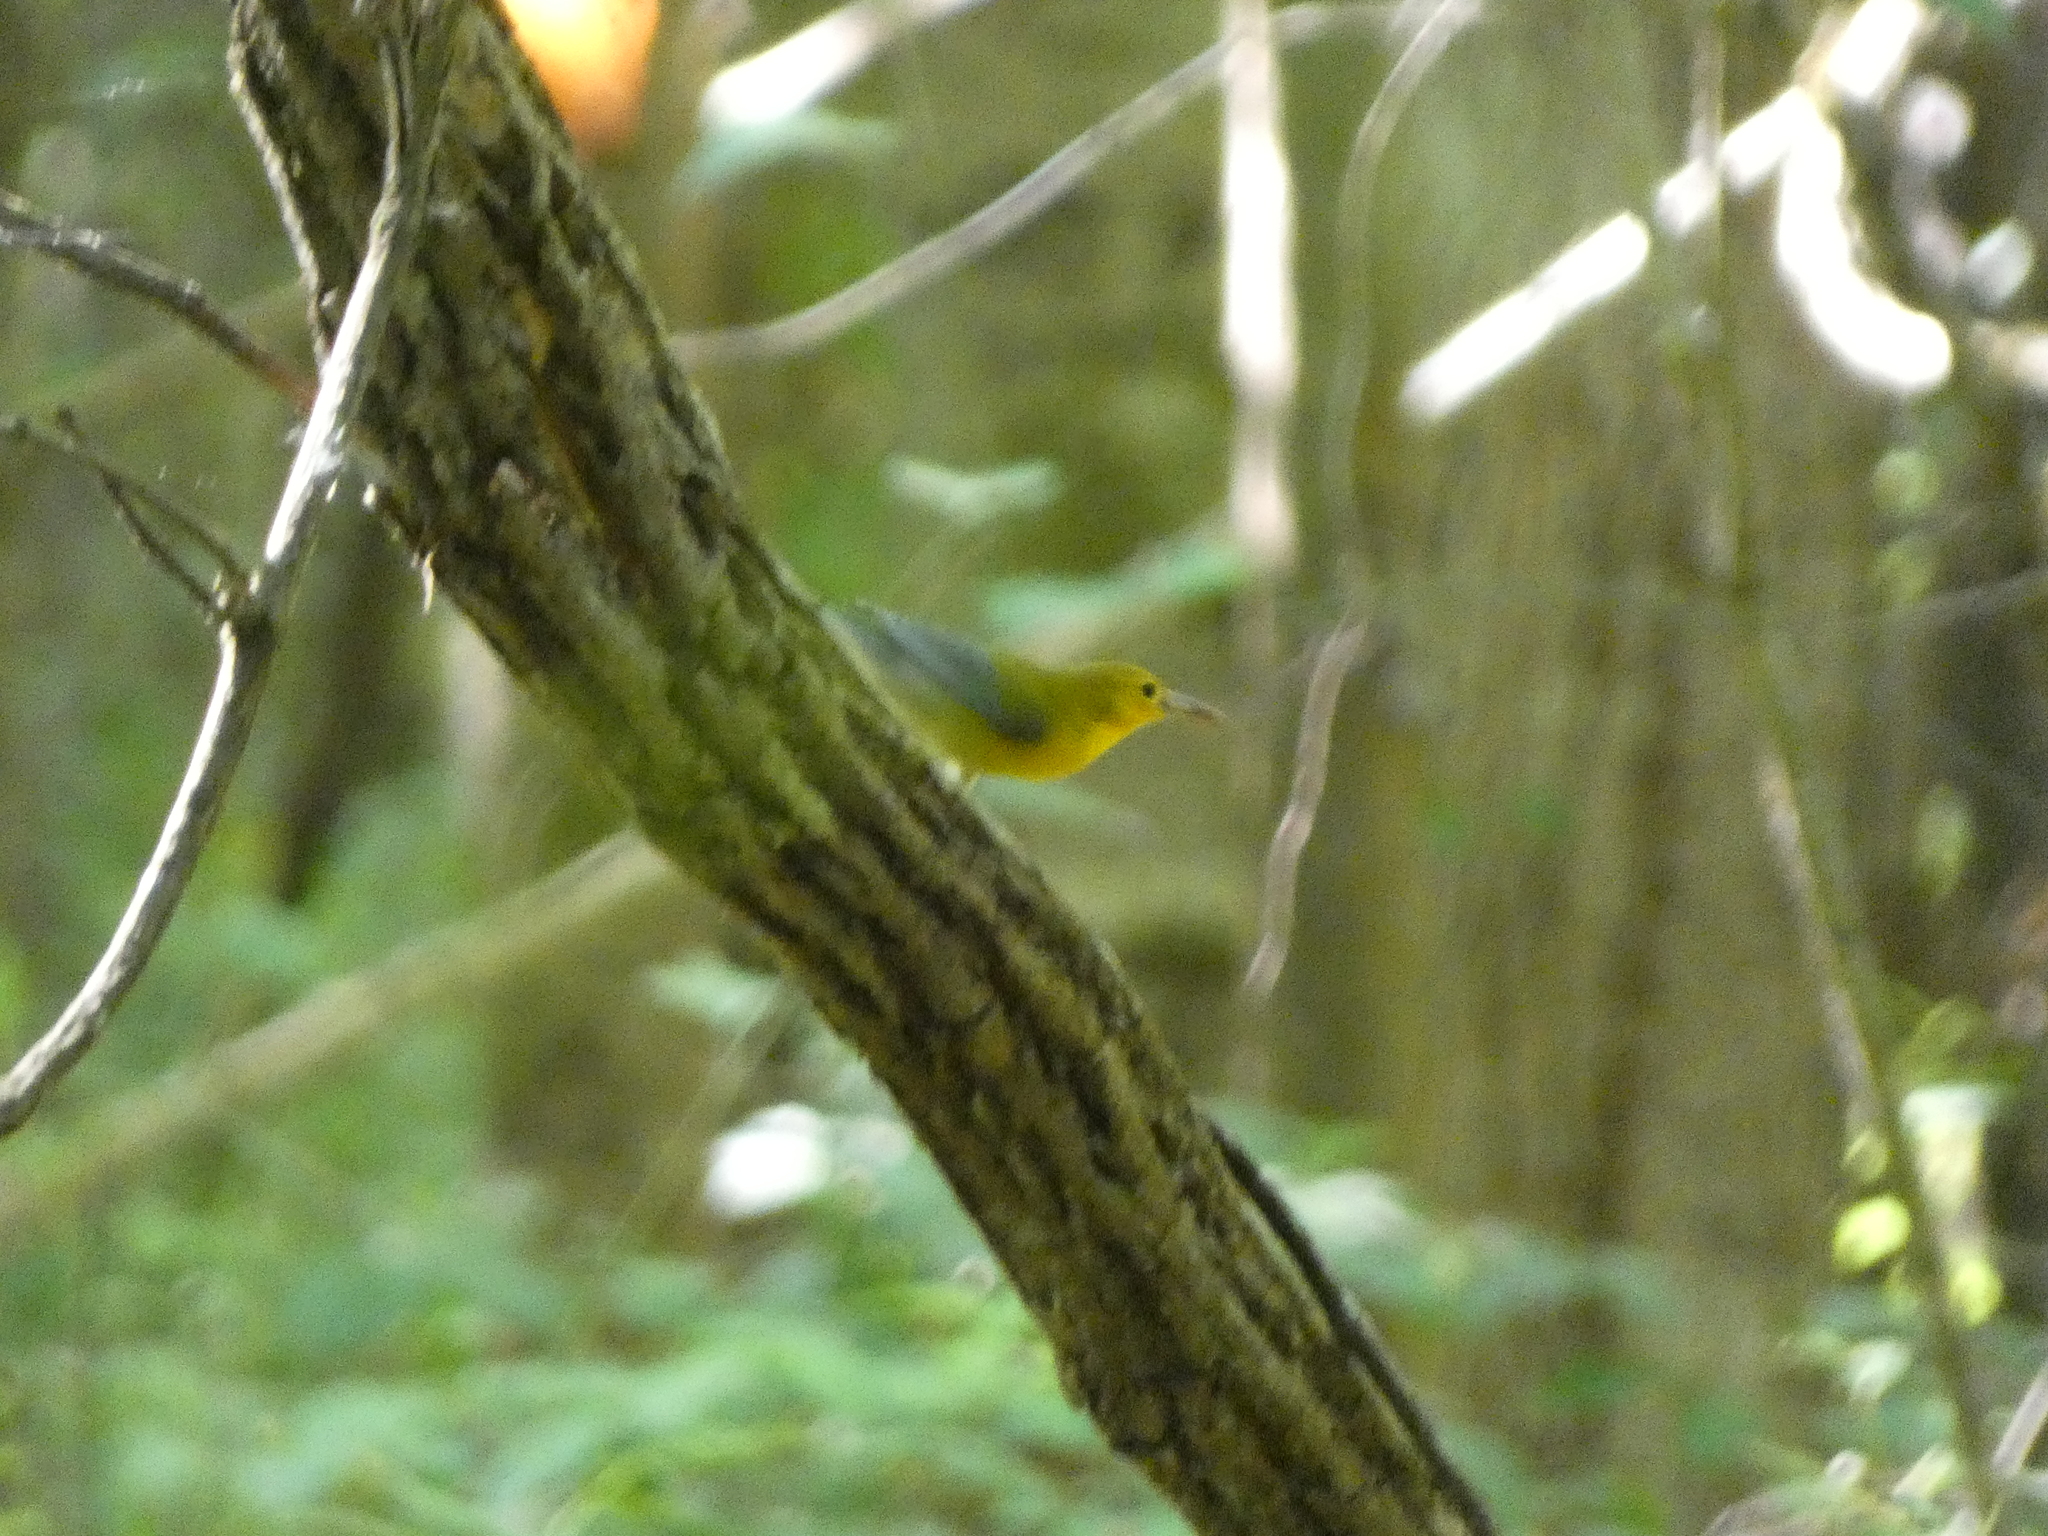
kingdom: Animalia
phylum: Chordata
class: Aves
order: Passeriformes
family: Parulidae
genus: Protonotaria
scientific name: Protonotaria citrea
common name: Prothonotary warbler
